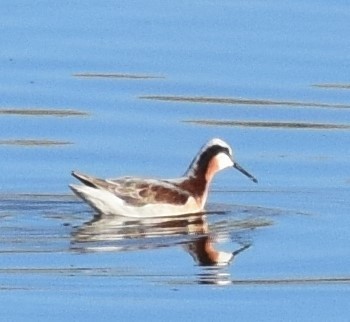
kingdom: Animalia
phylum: Chordata
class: Aves
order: Charadriiformes
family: Scolopacidae
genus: Phalaropus
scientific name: Phalaropus tricolor
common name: Wilson's phalarope
